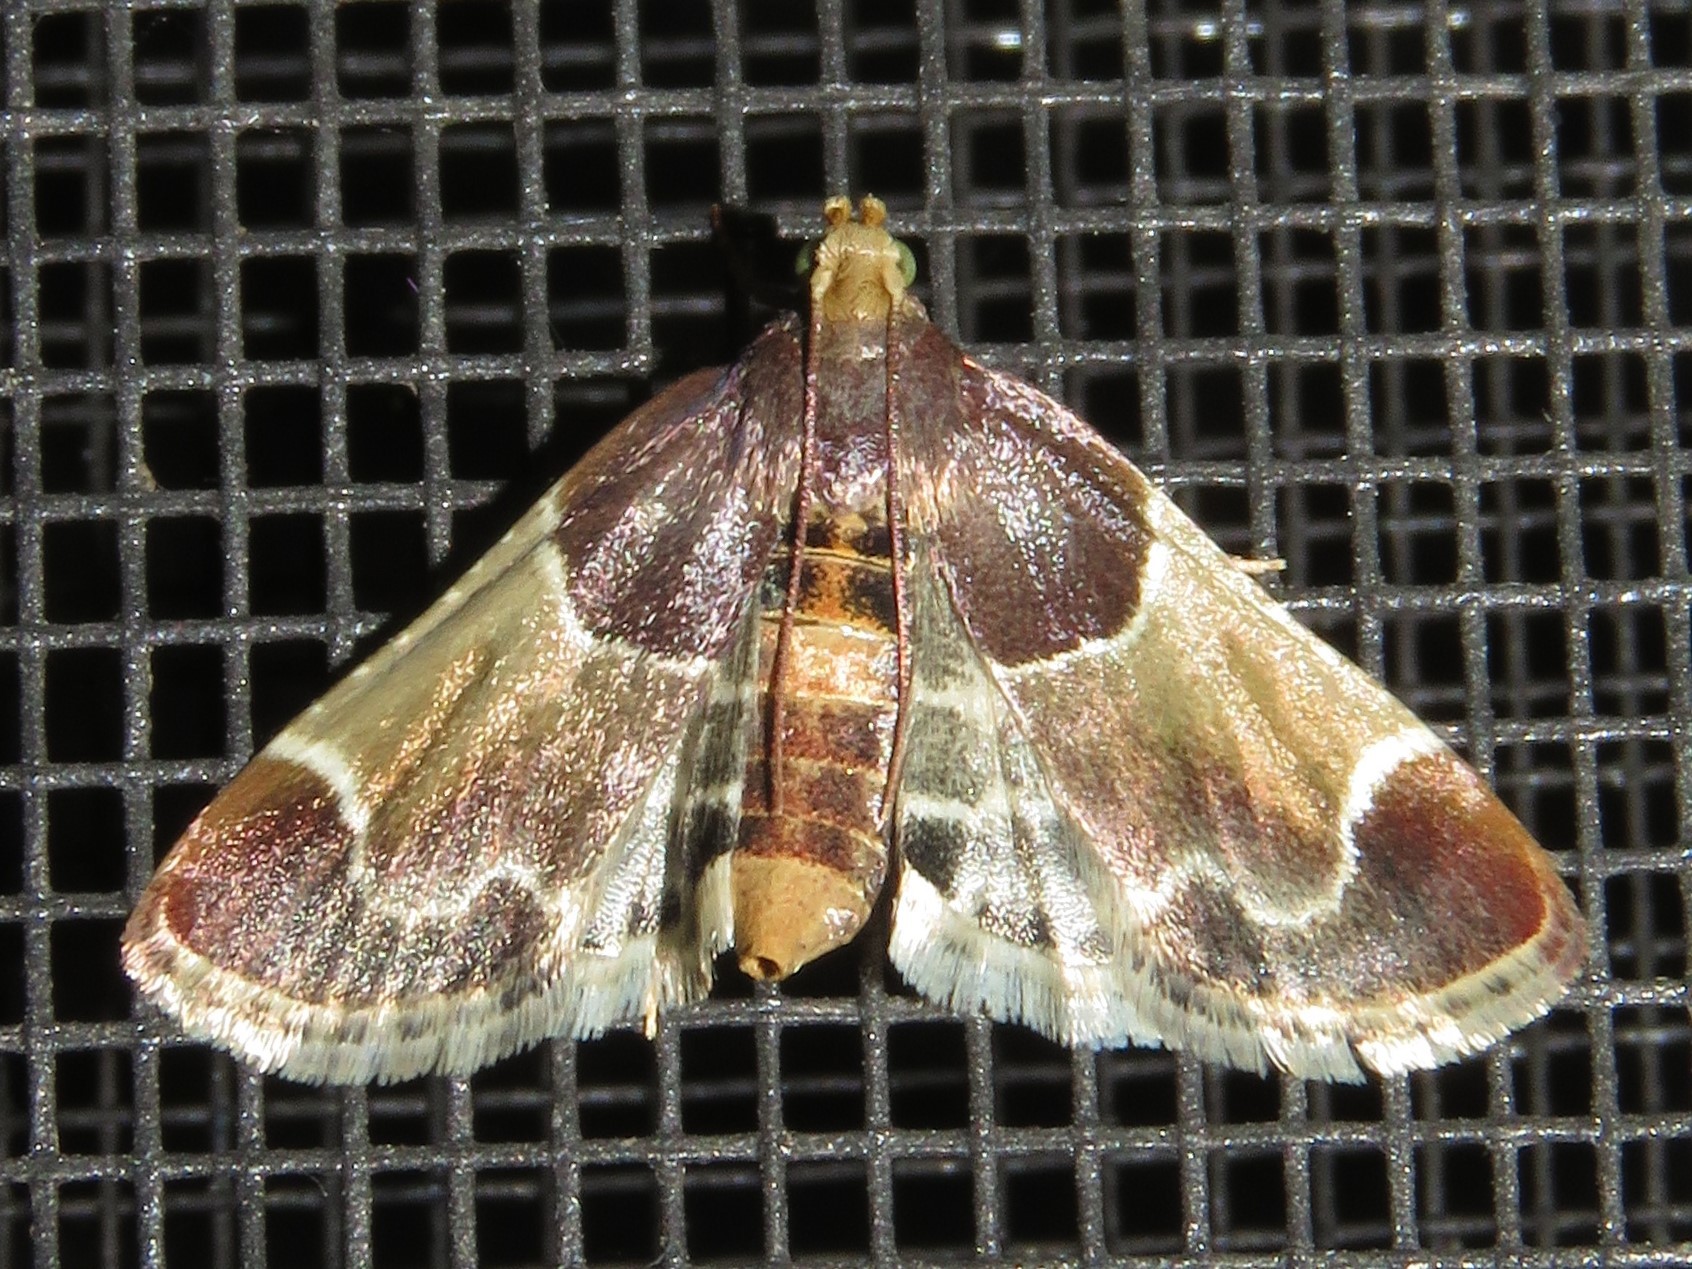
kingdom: Animalia
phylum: Arthropoda
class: Insecta
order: Lepidoptera
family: Pyralidae
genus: Pyralis
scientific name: Pyralis farinalis
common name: Meal moth
